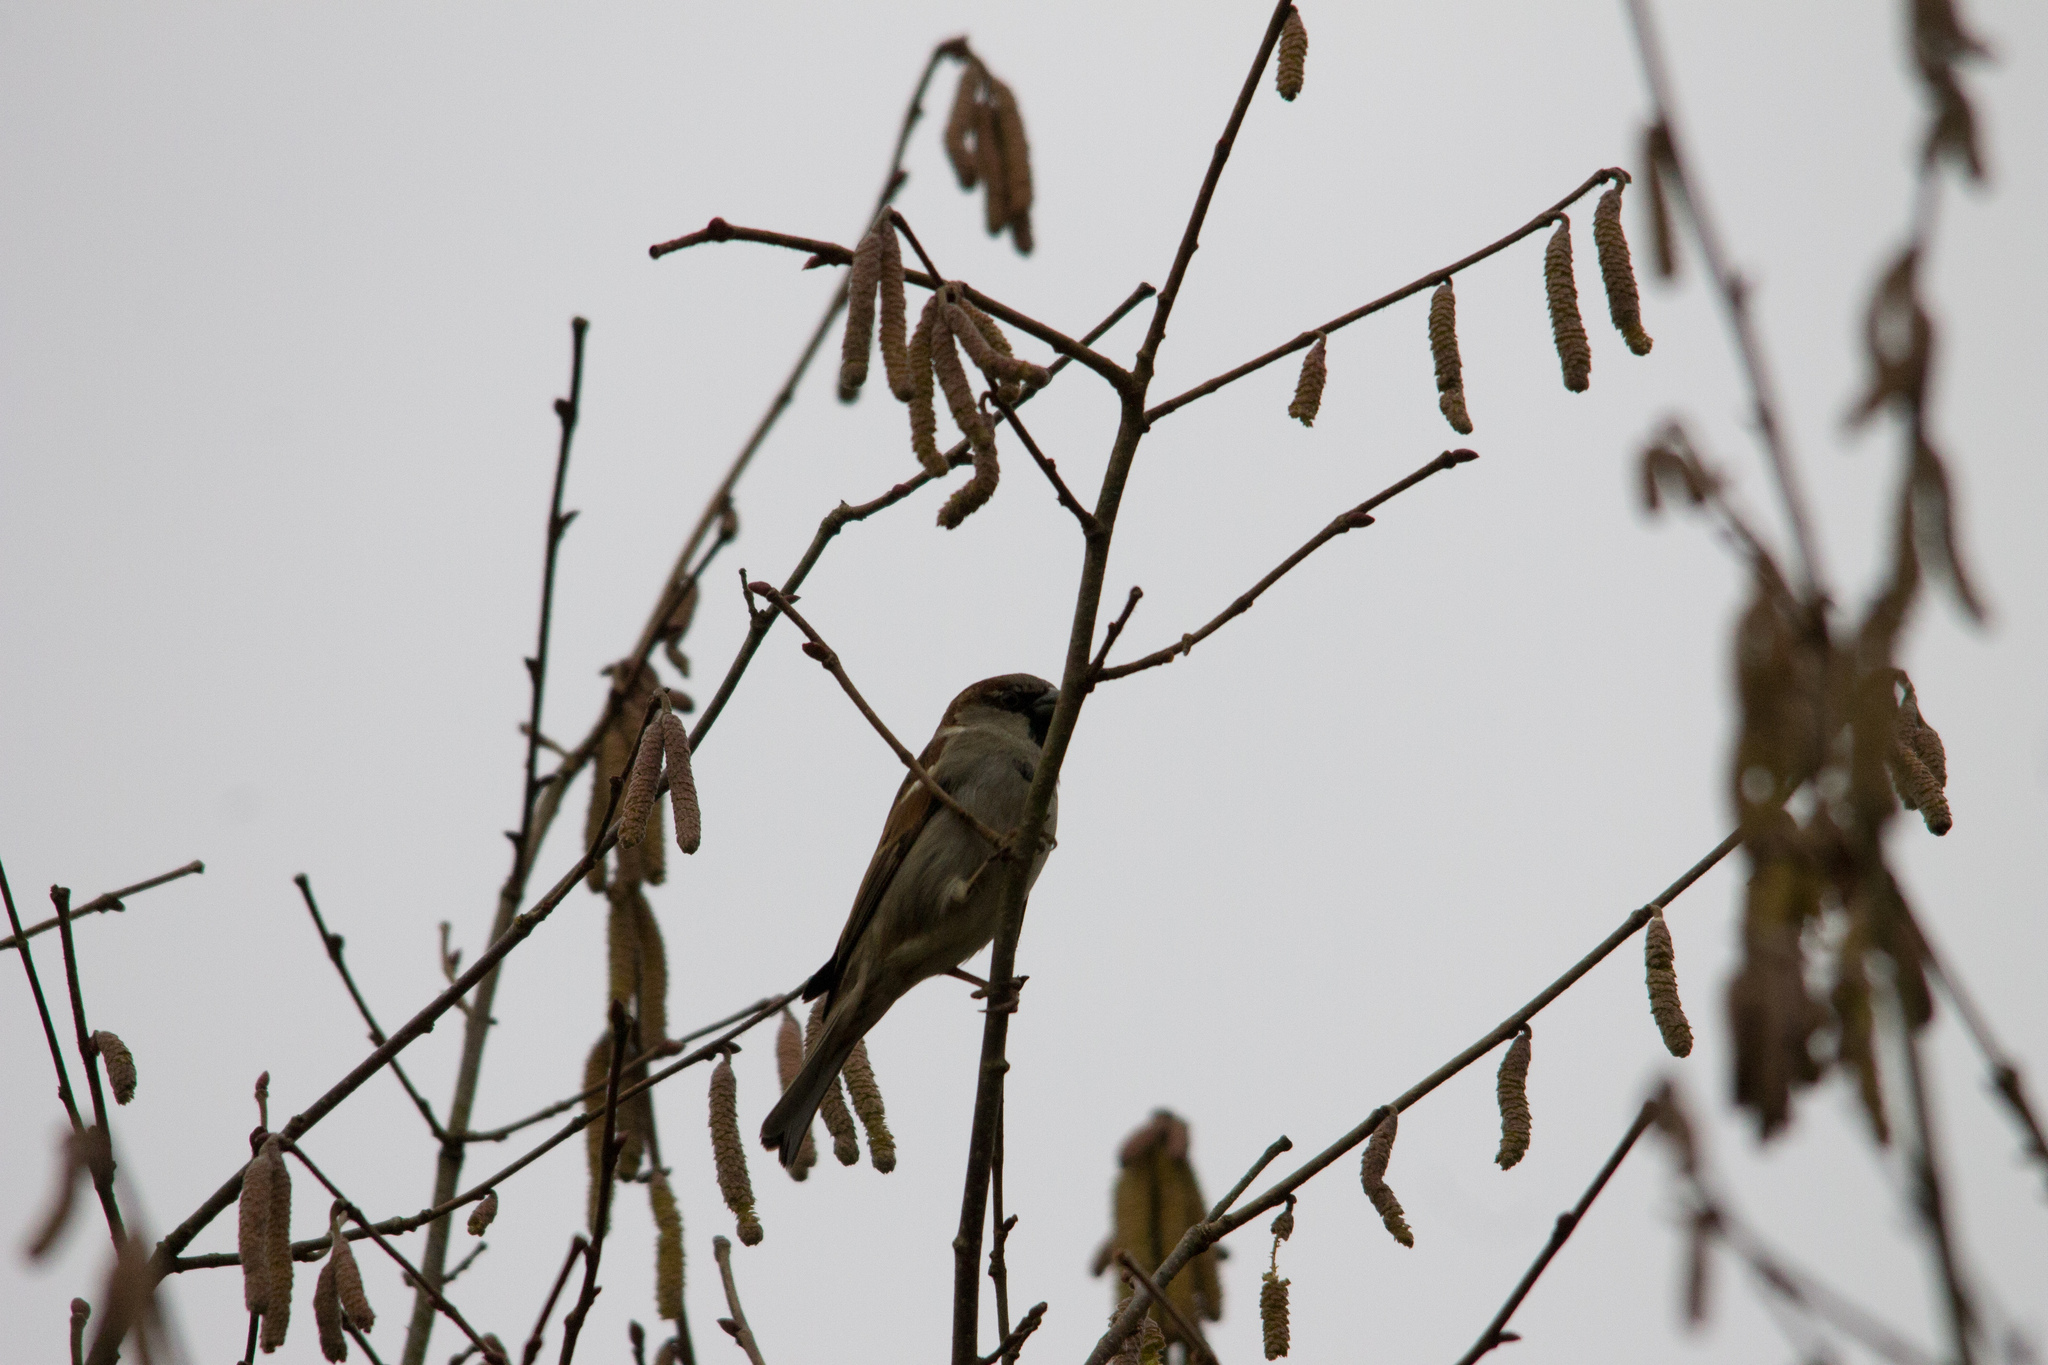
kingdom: Animalia
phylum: Chordata
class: Aves
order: Passeriformes
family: Passeridae
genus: Passer
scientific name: Passer domesticus
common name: House sparrow
